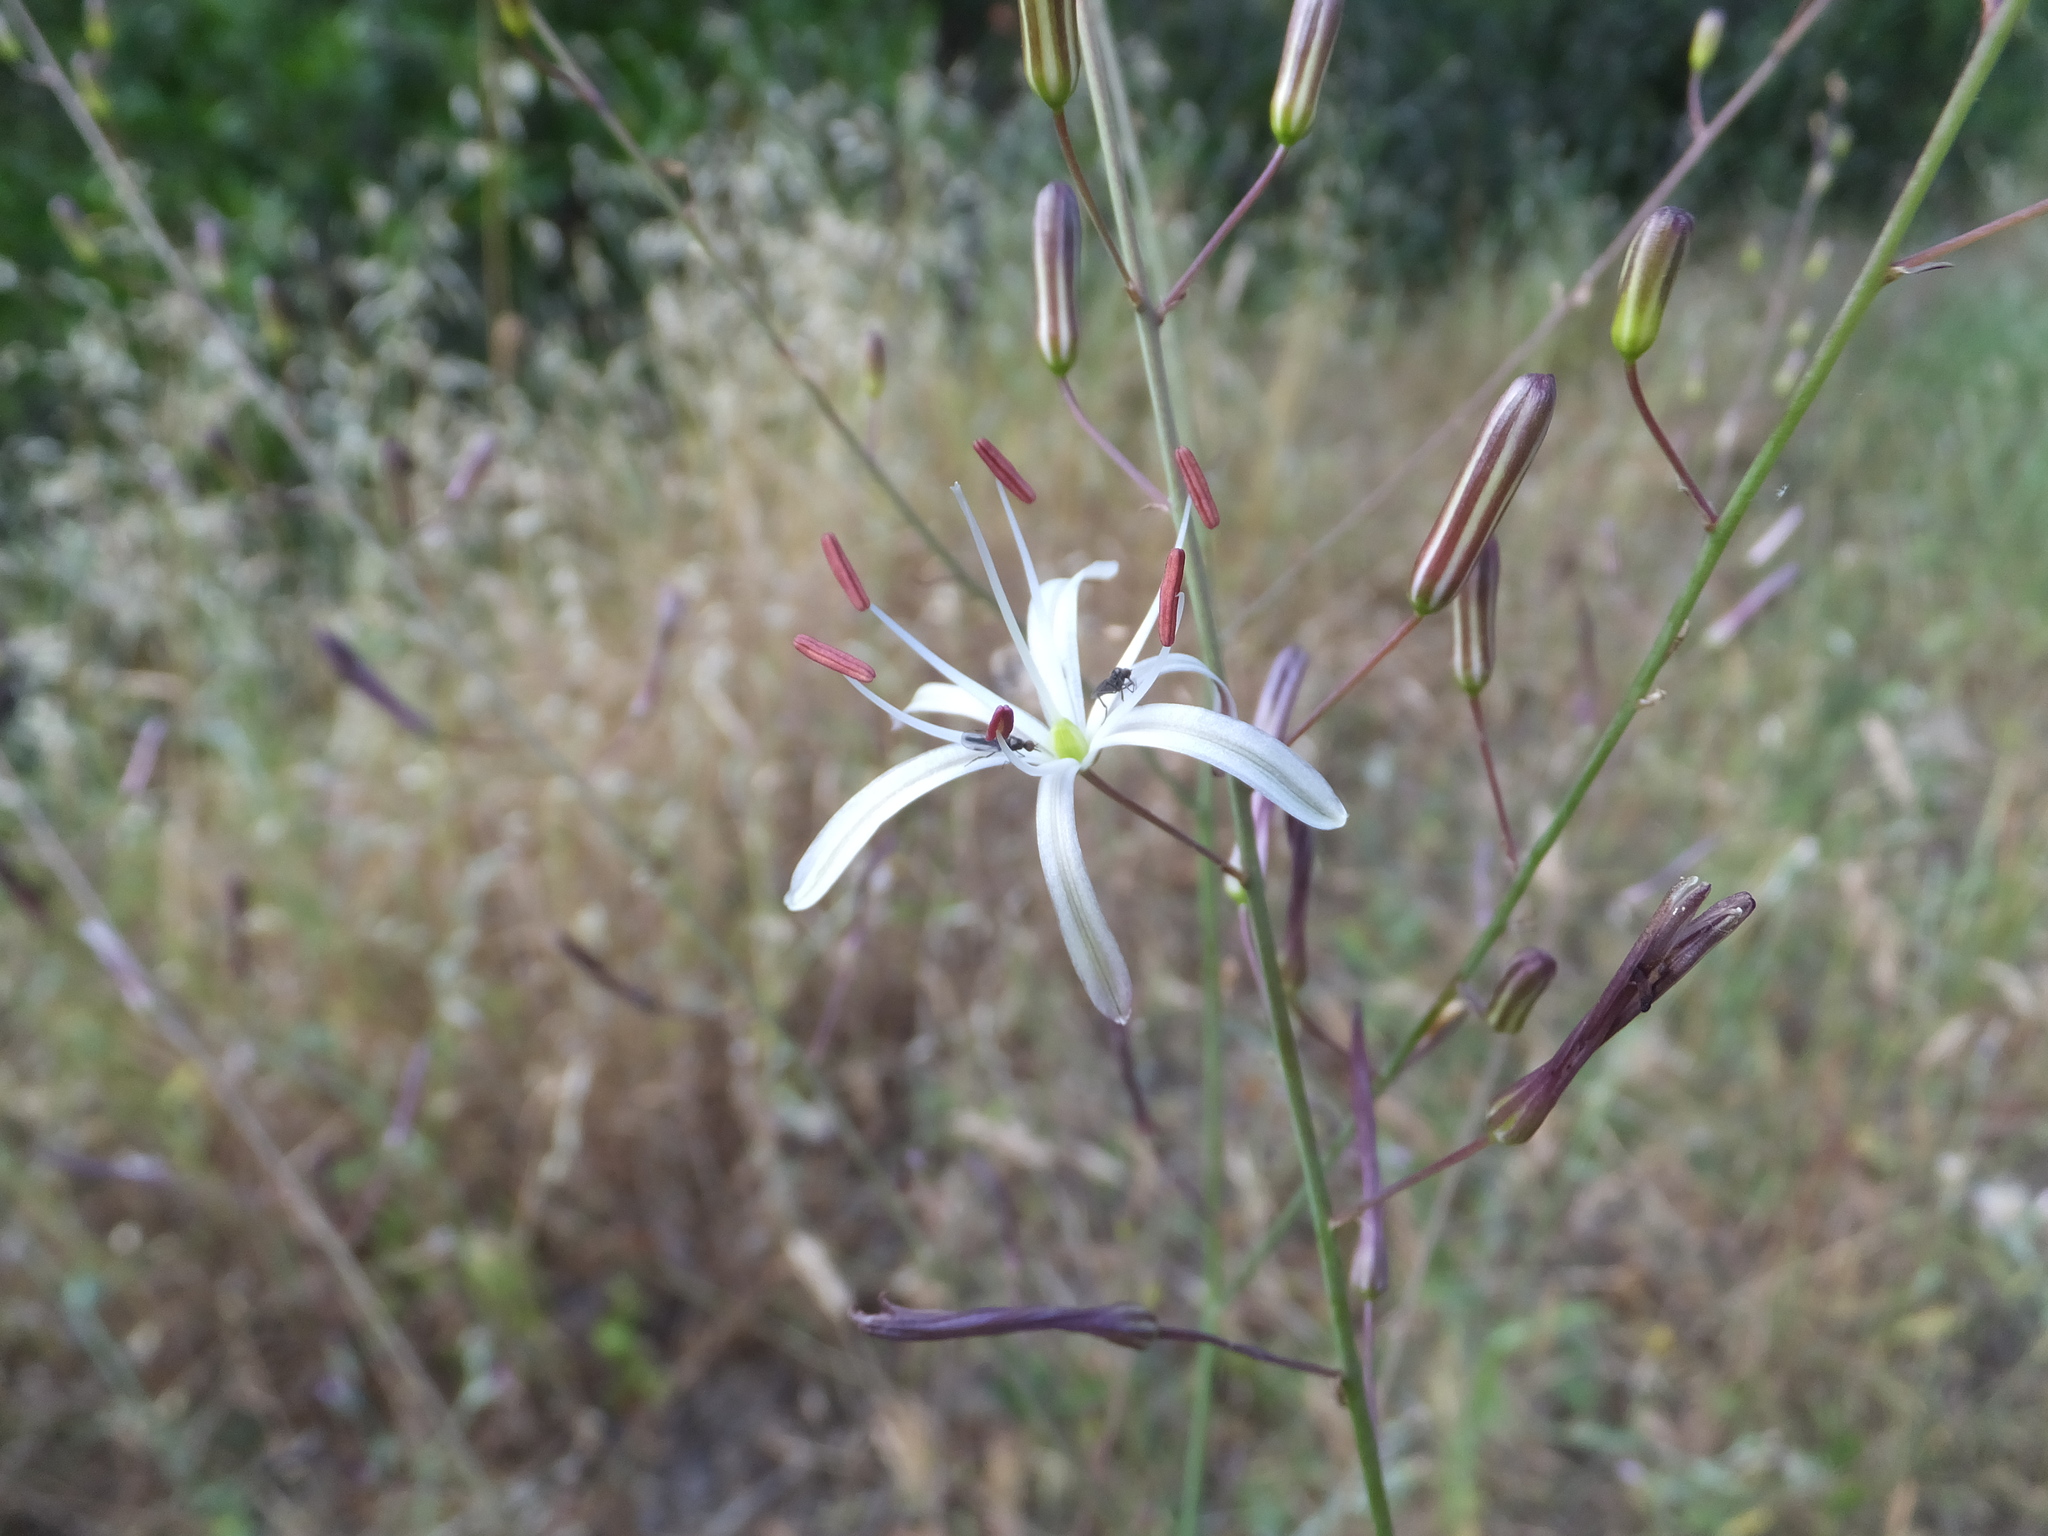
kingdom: Plantae
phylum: Tracheophyta
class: Liliopsida
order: Asparagales
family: Asparagaceae
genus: Chlorogalum
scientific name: Chlorogalum pomeridianum
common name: Amole
